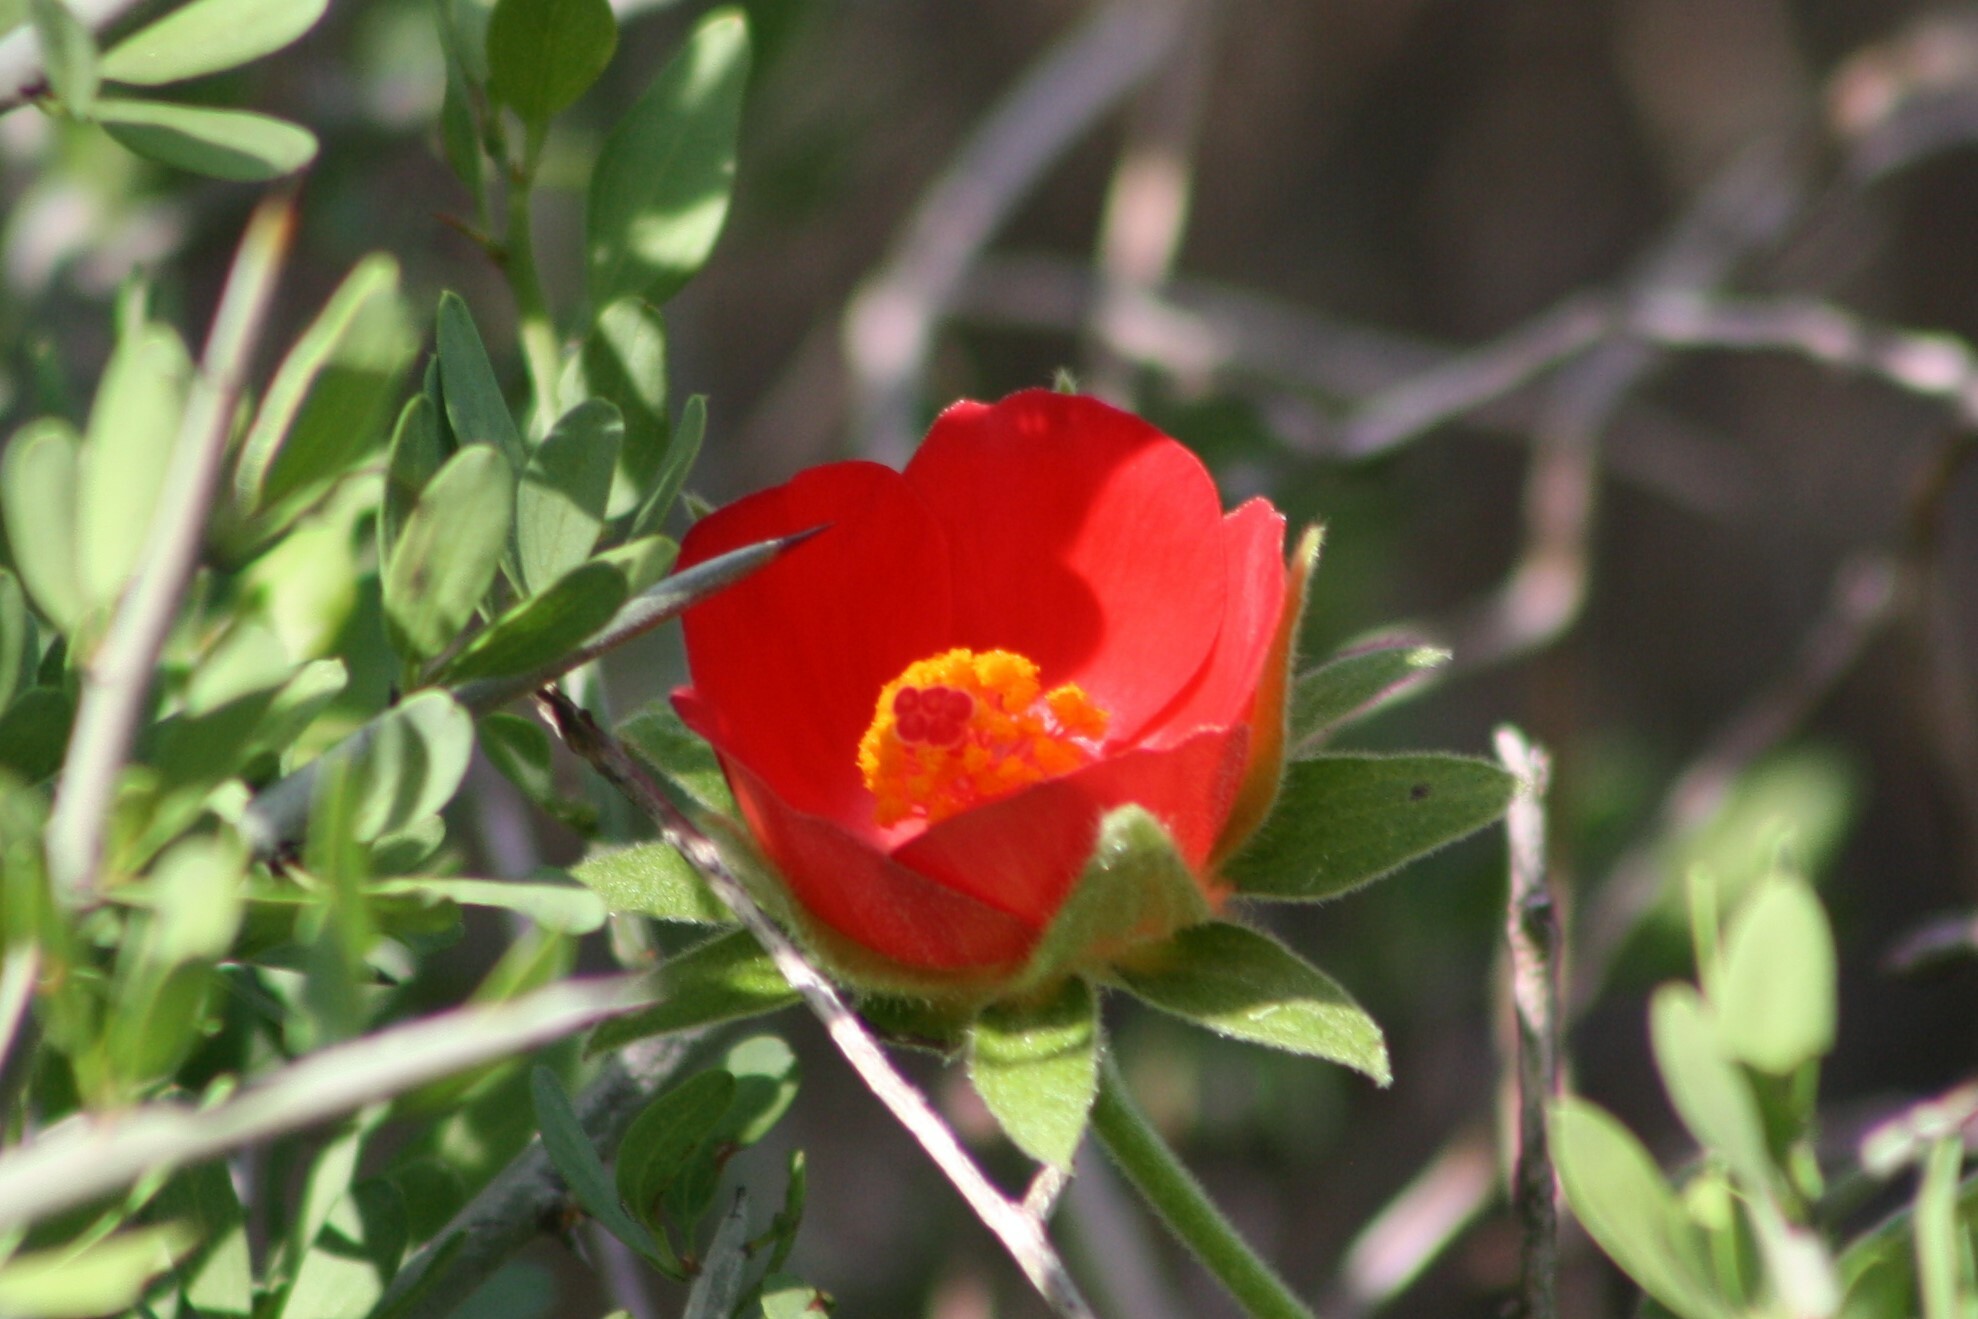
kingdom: Plantae
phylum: Tracheophyta
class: Magnoliopsida
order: Malvales
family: Malvaceae
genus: Hibiscus
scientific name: Hibiscus martianus
